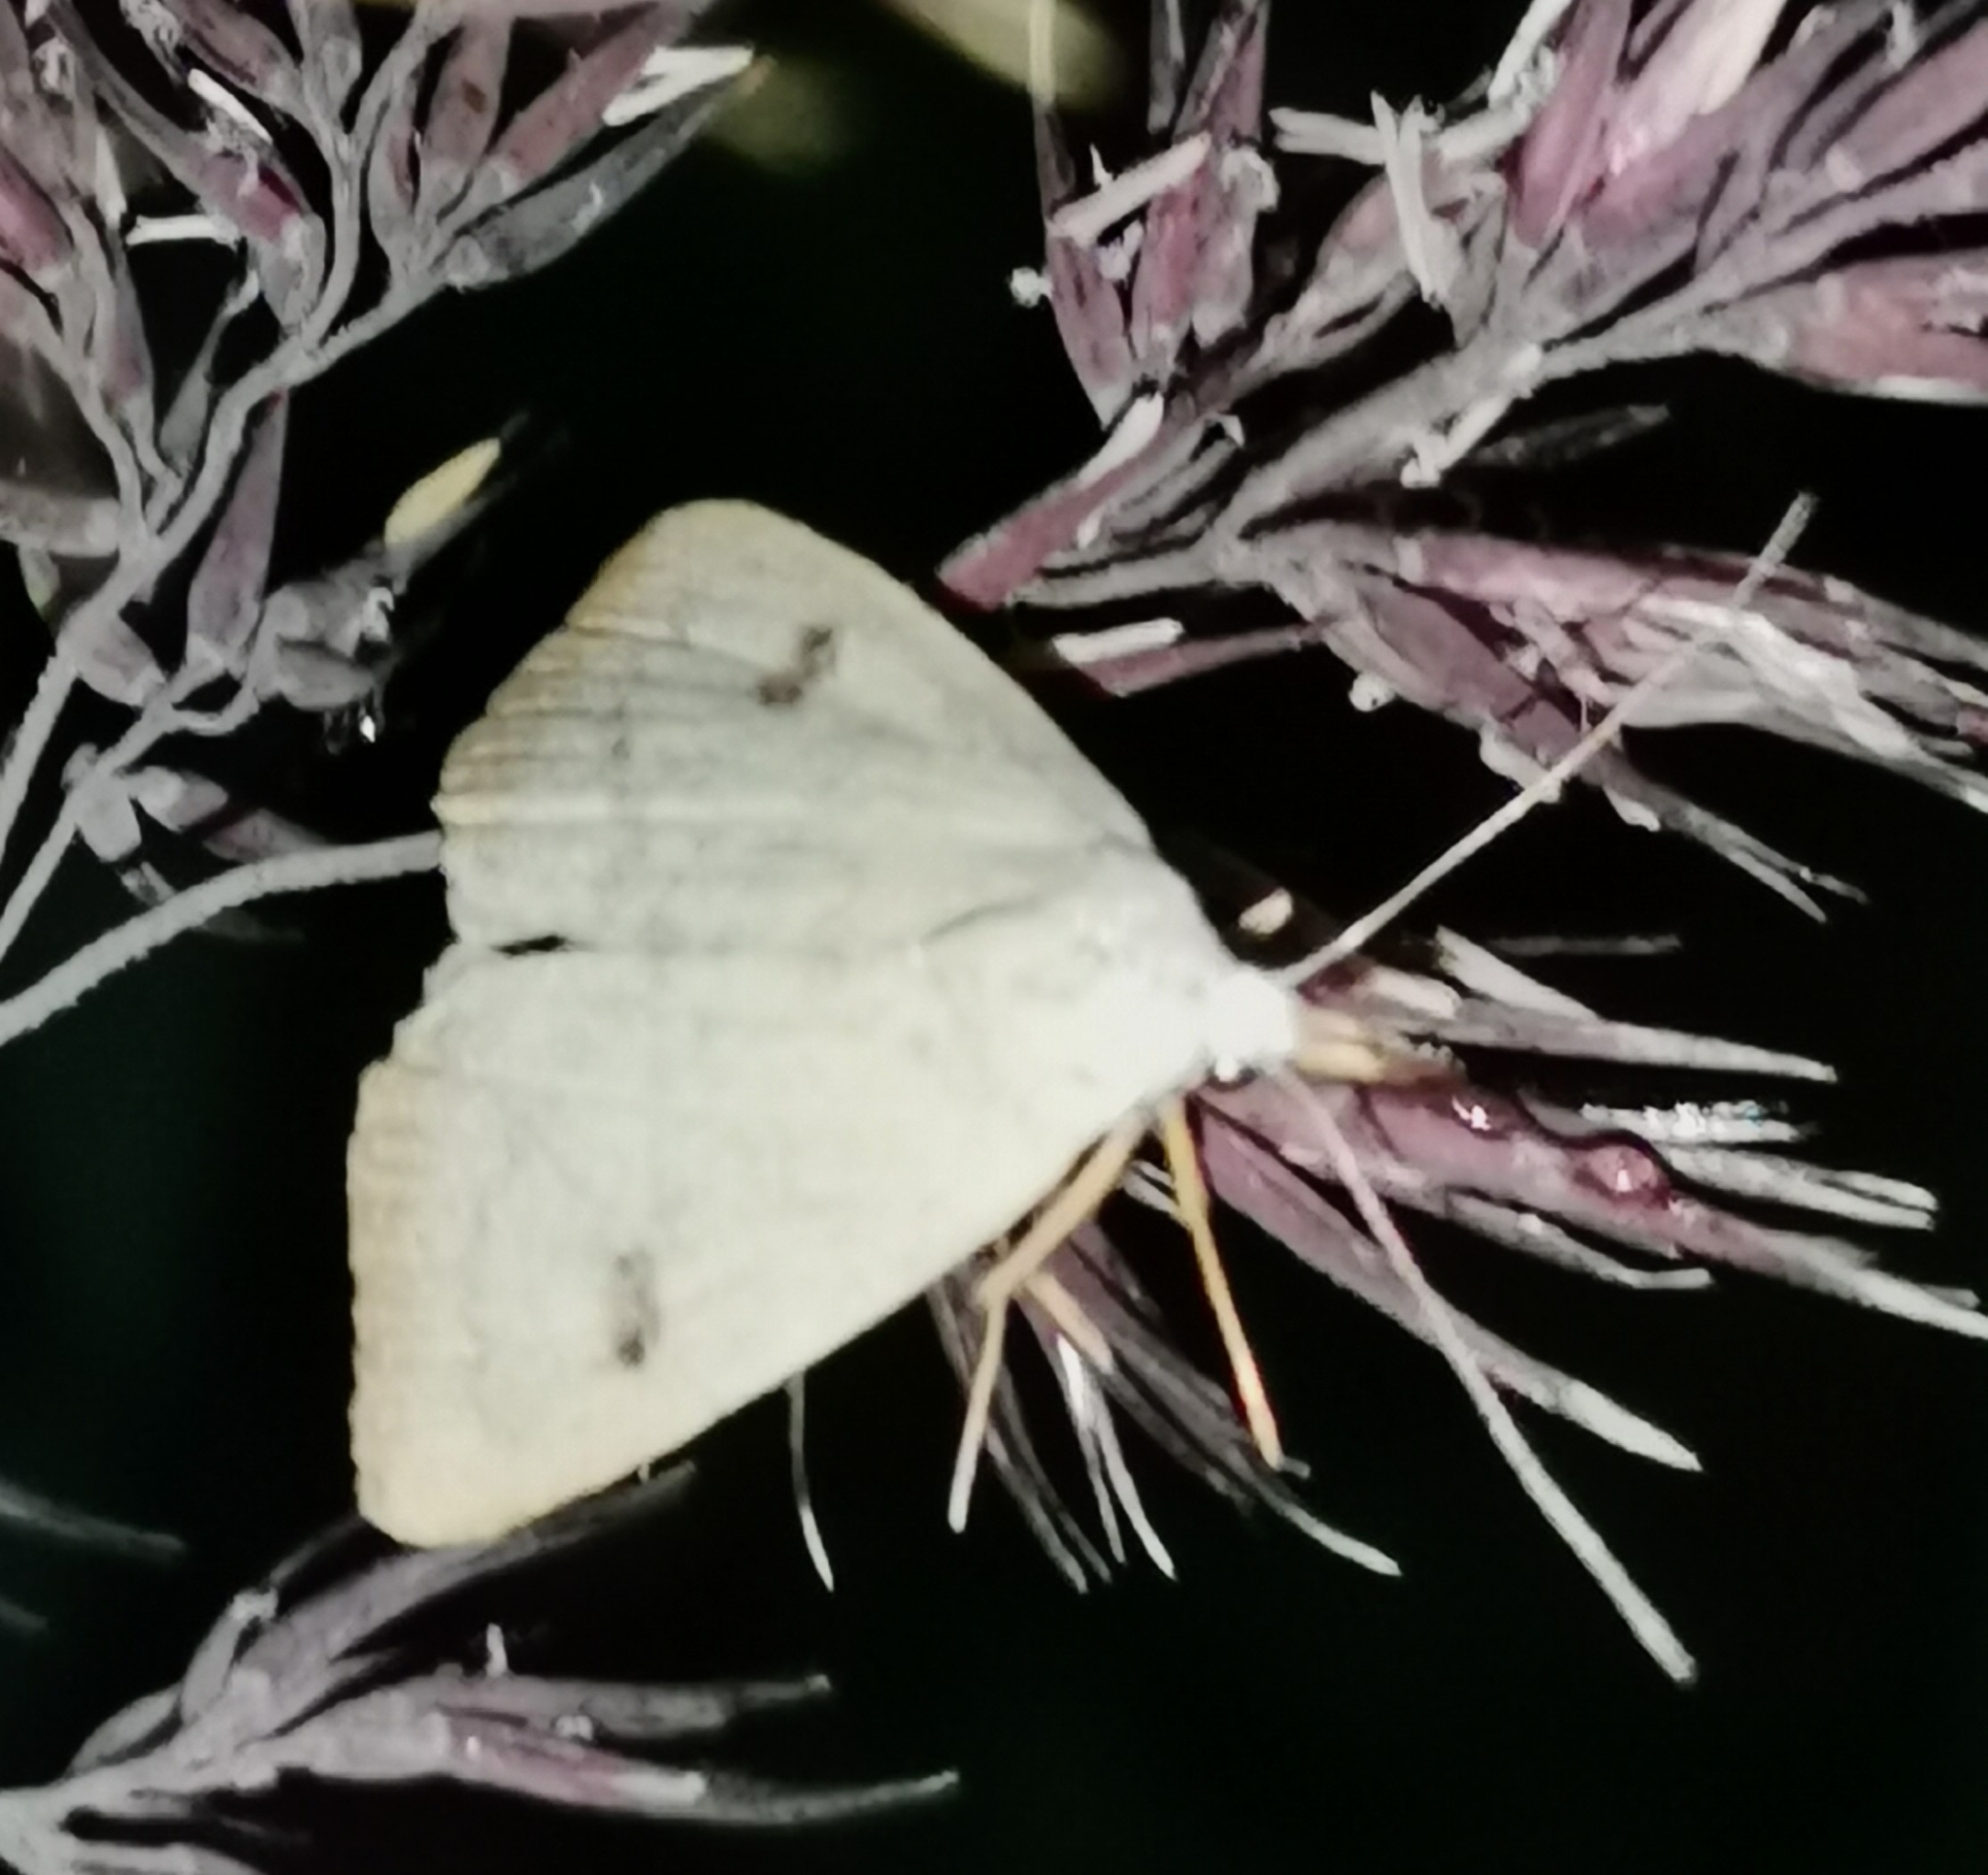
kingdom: Animalia
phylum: Arthropoda
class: Insecta
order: Lepidoptera
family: Erebidae
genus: Rivula
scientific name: Rivula sericealis
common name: Straw dot
